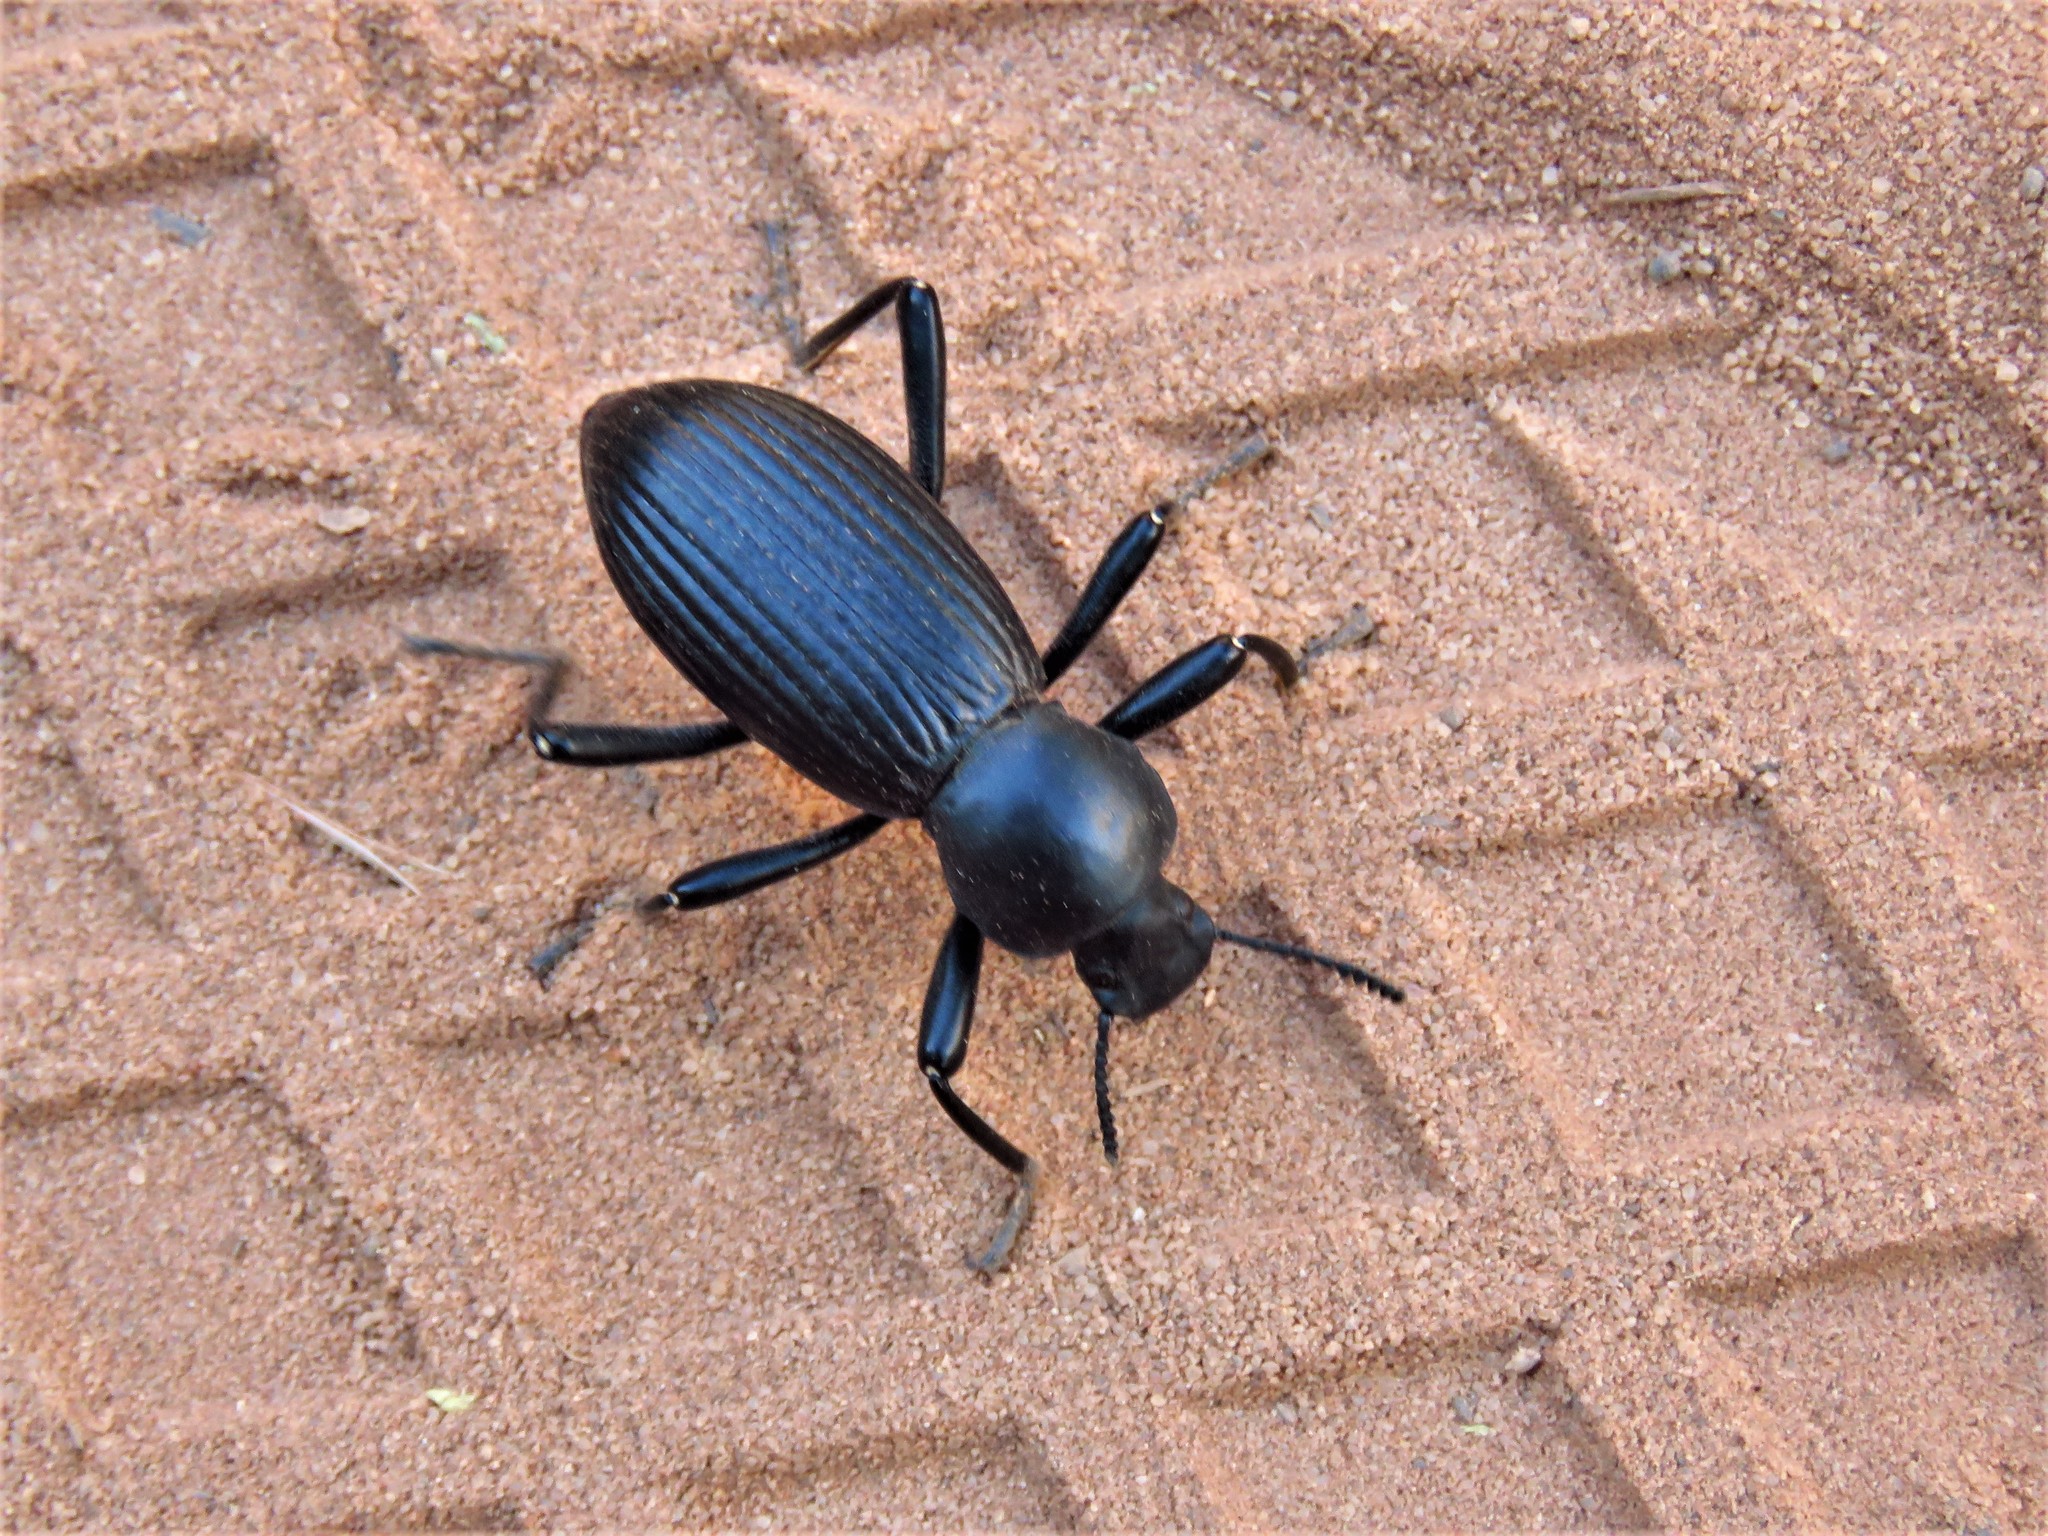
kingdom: Animalia
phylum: Arthropoda
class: Insecta
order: Coleoptera
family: Tenebrionidae
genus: Coelocnemis
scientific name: Coelocnemis sulcata
